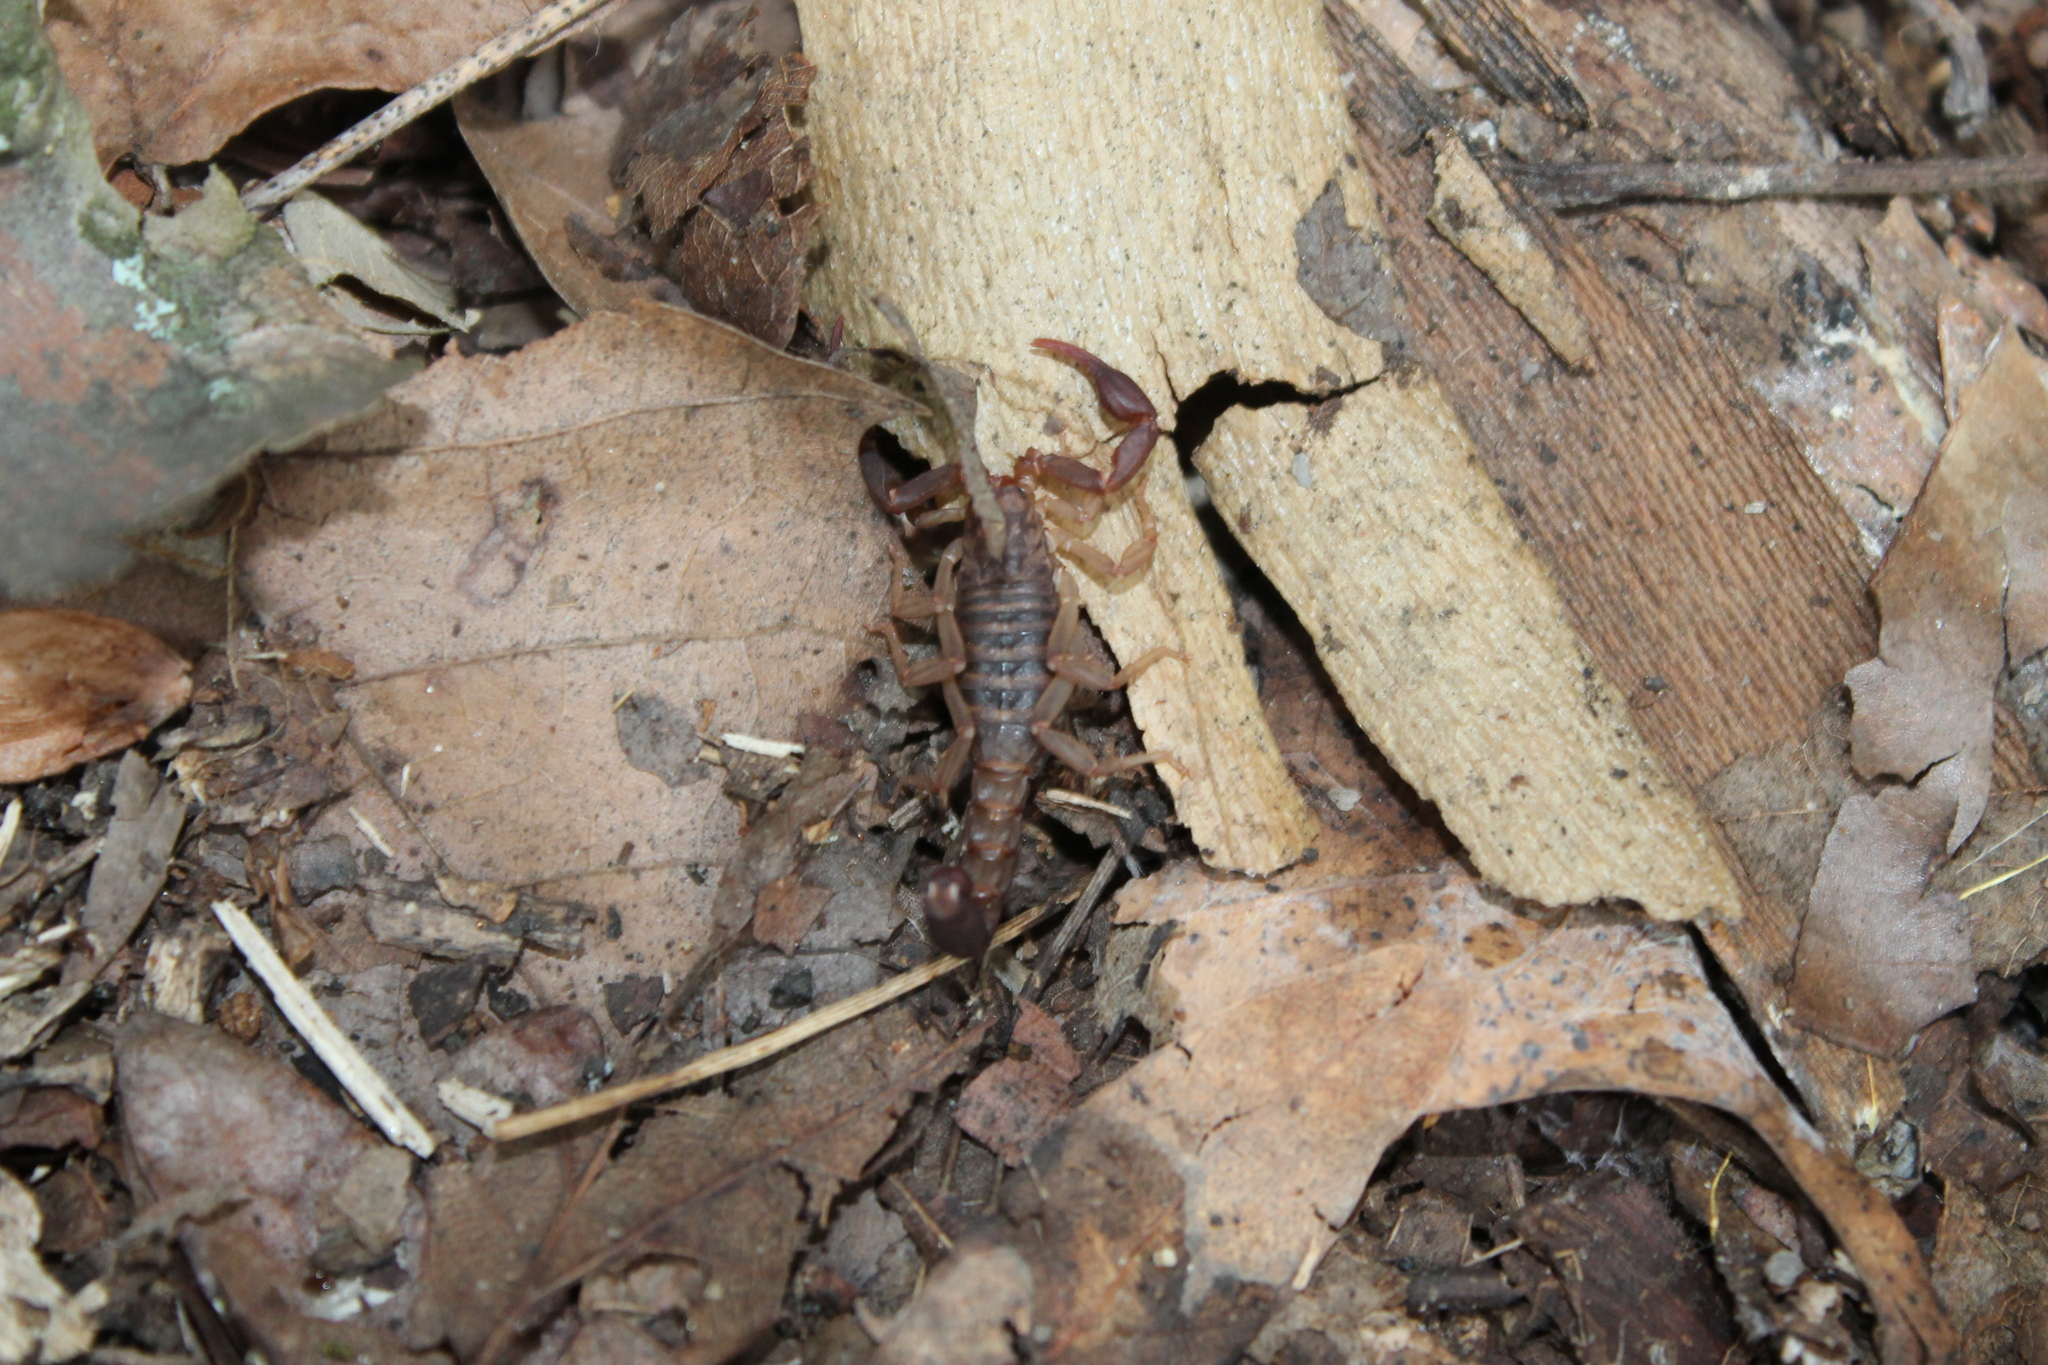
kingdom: Animalia
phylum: Arthropoda
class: Arachnida
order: Scorpiones
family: Vaejovidae
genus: Vaejovis
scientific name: Vaejovis carolinianus
